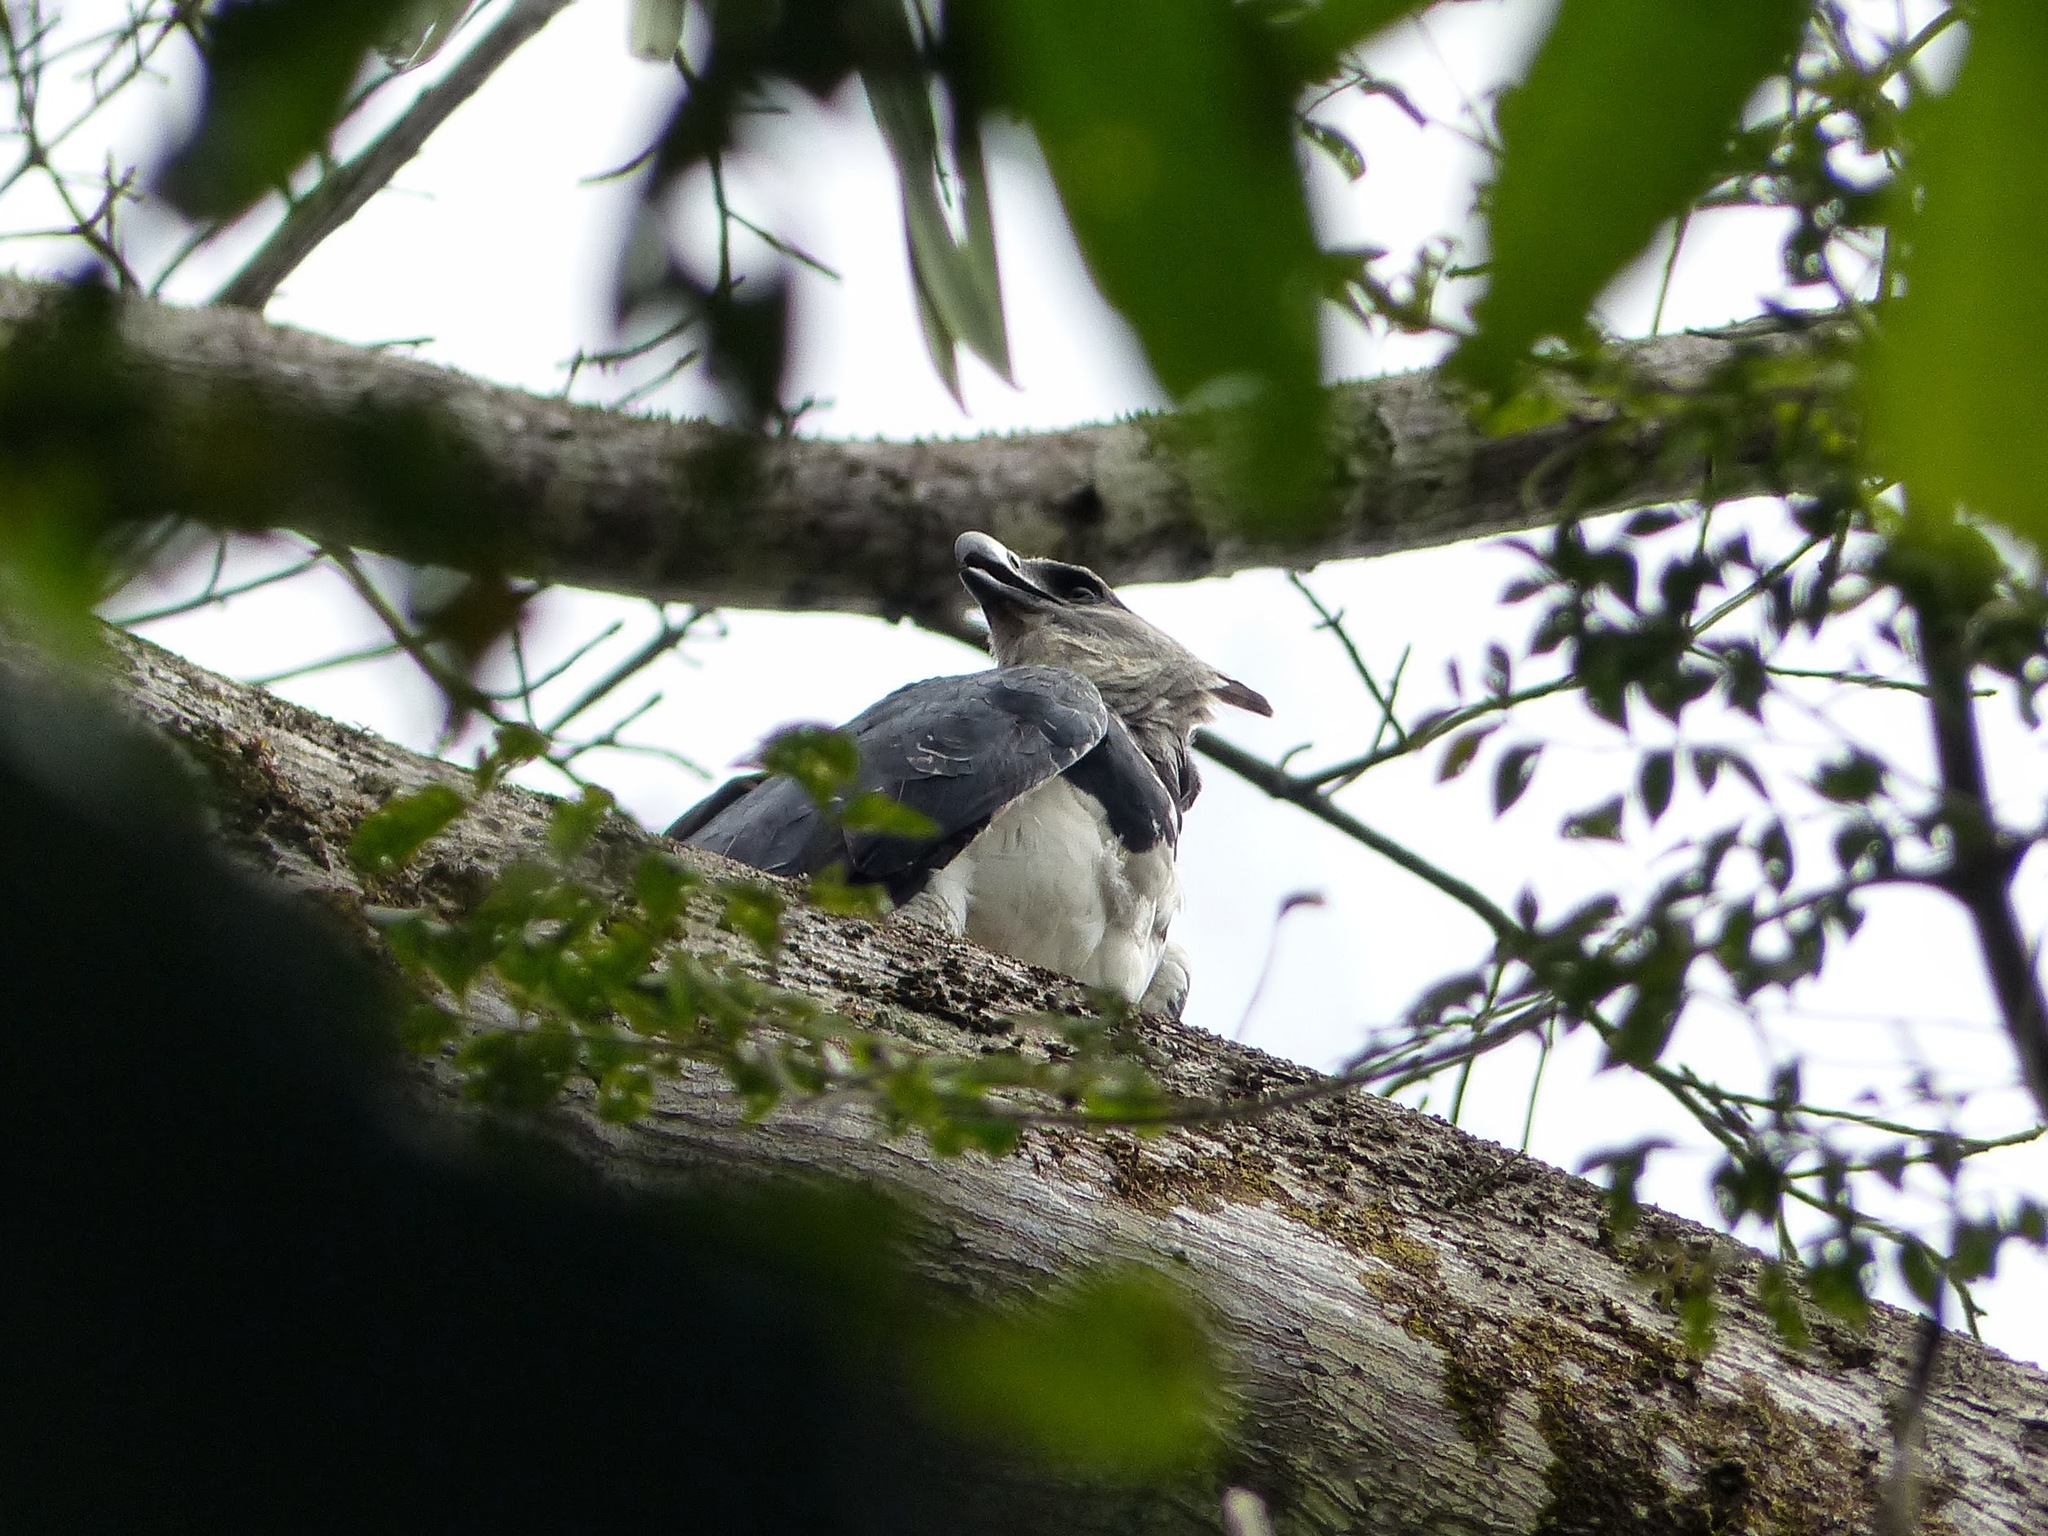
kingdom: Animalia
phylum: Chordata
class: Aves
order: Accipitriformes
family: Accipitridae
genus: Harpia
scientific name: Harpia harpyja
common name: Harpy eagle
